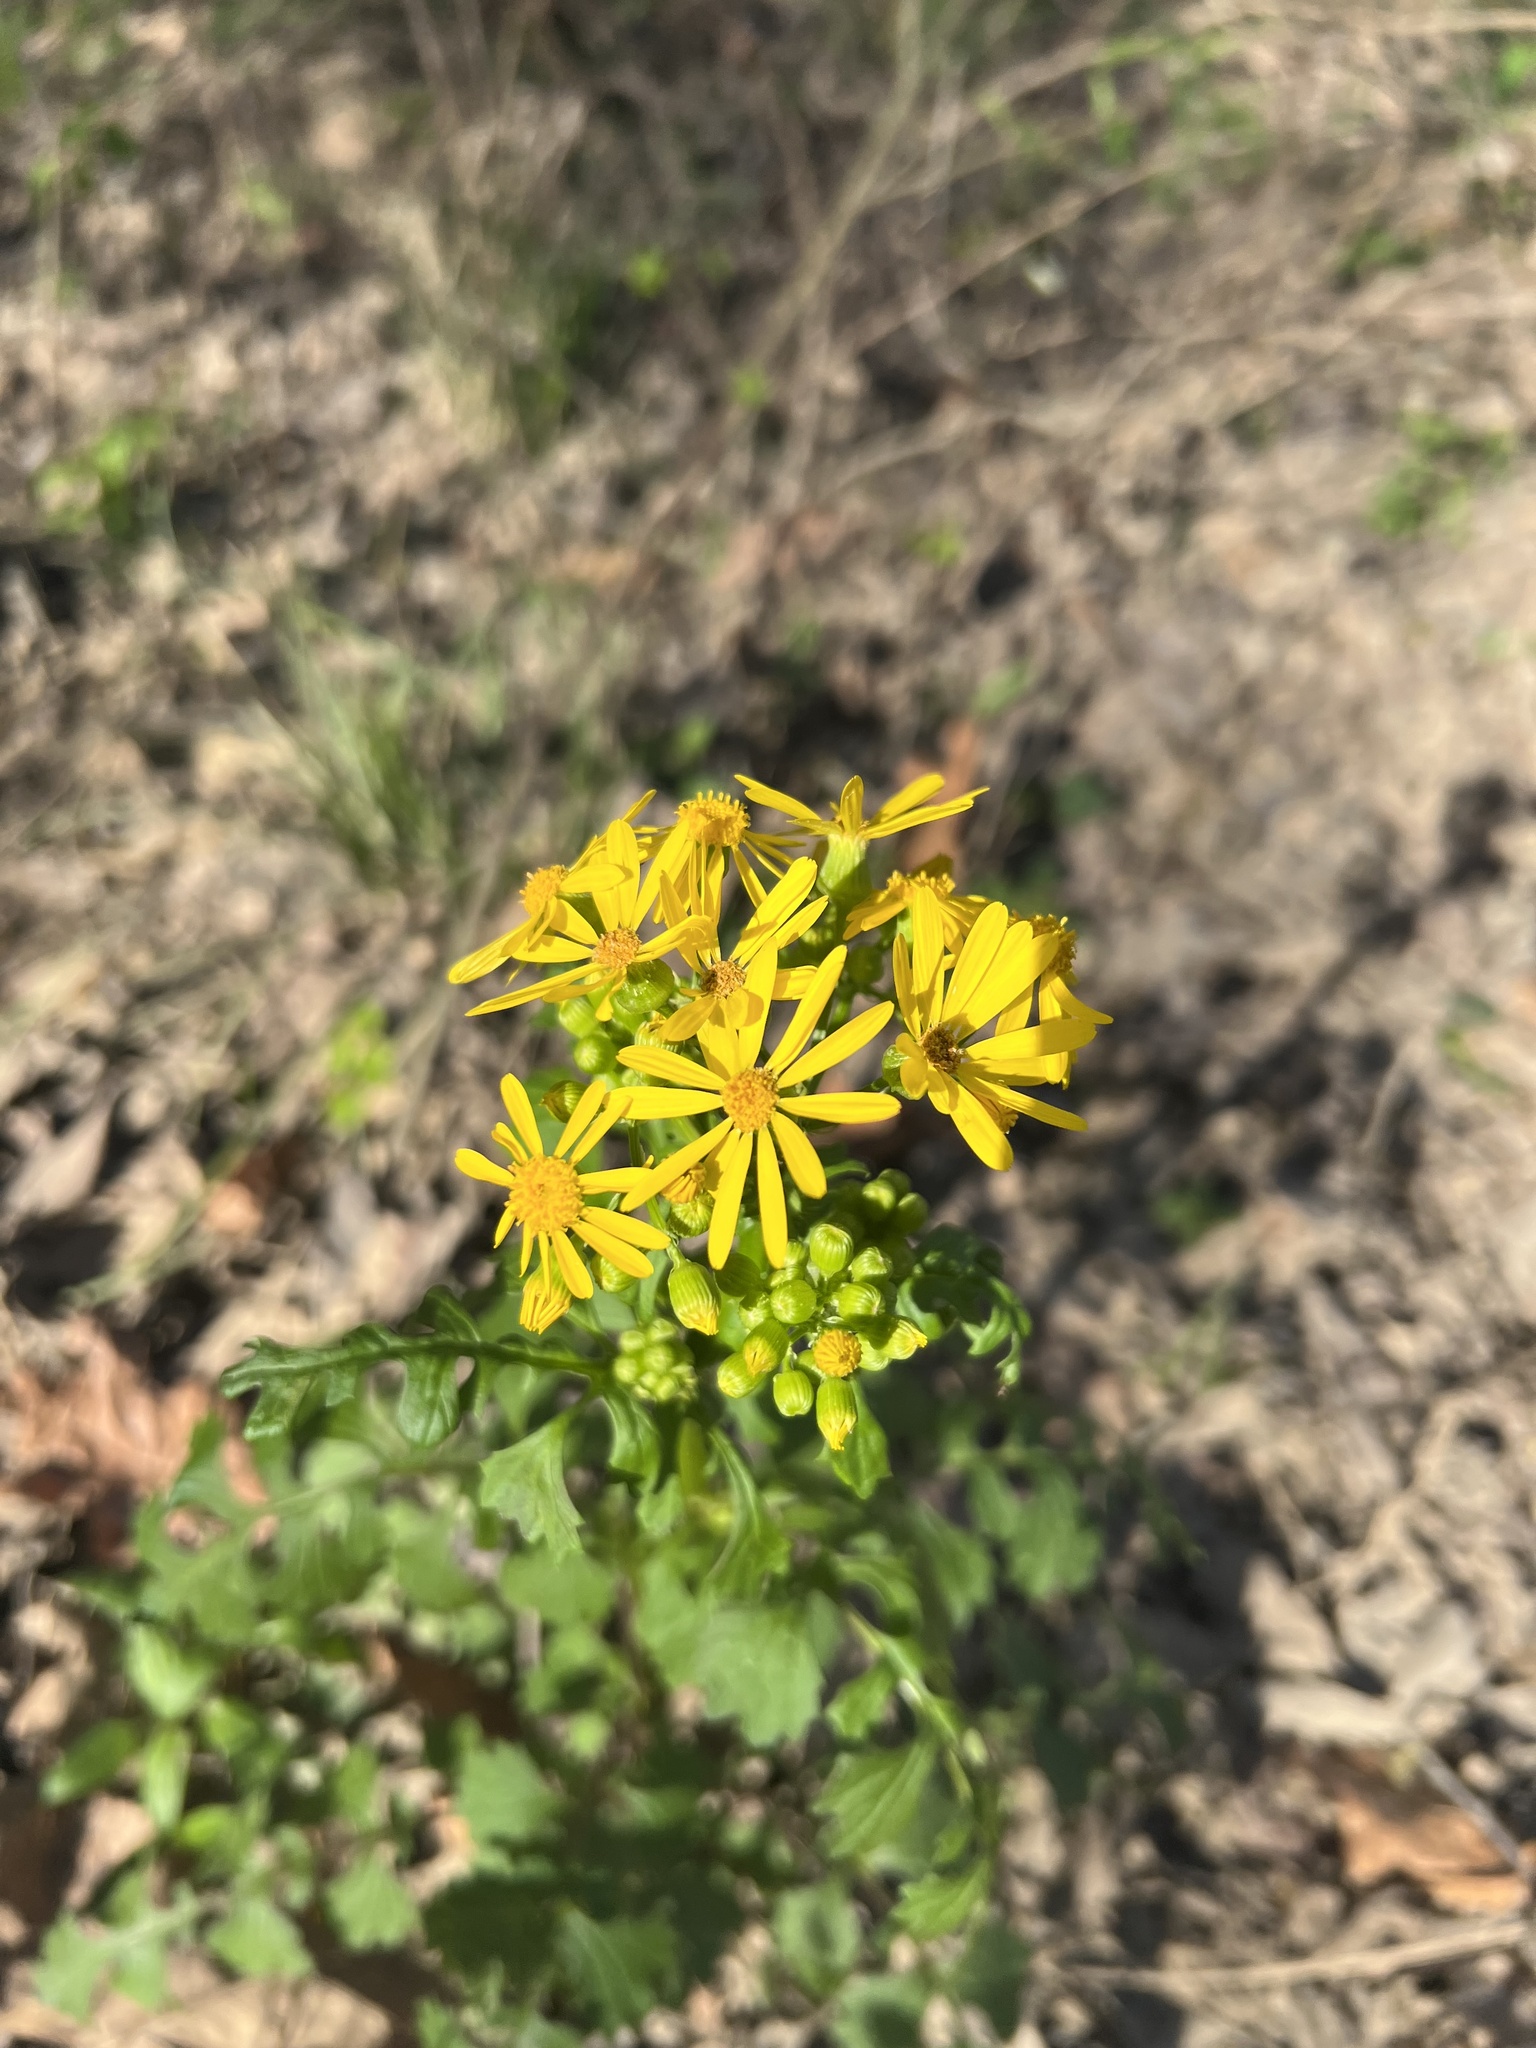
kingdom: Plantae
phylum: Tracheophyta
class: Magnoliopsida
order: Asterales
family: Asteraceae
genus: Packera
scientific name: Packera glabella
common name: Butterweed
